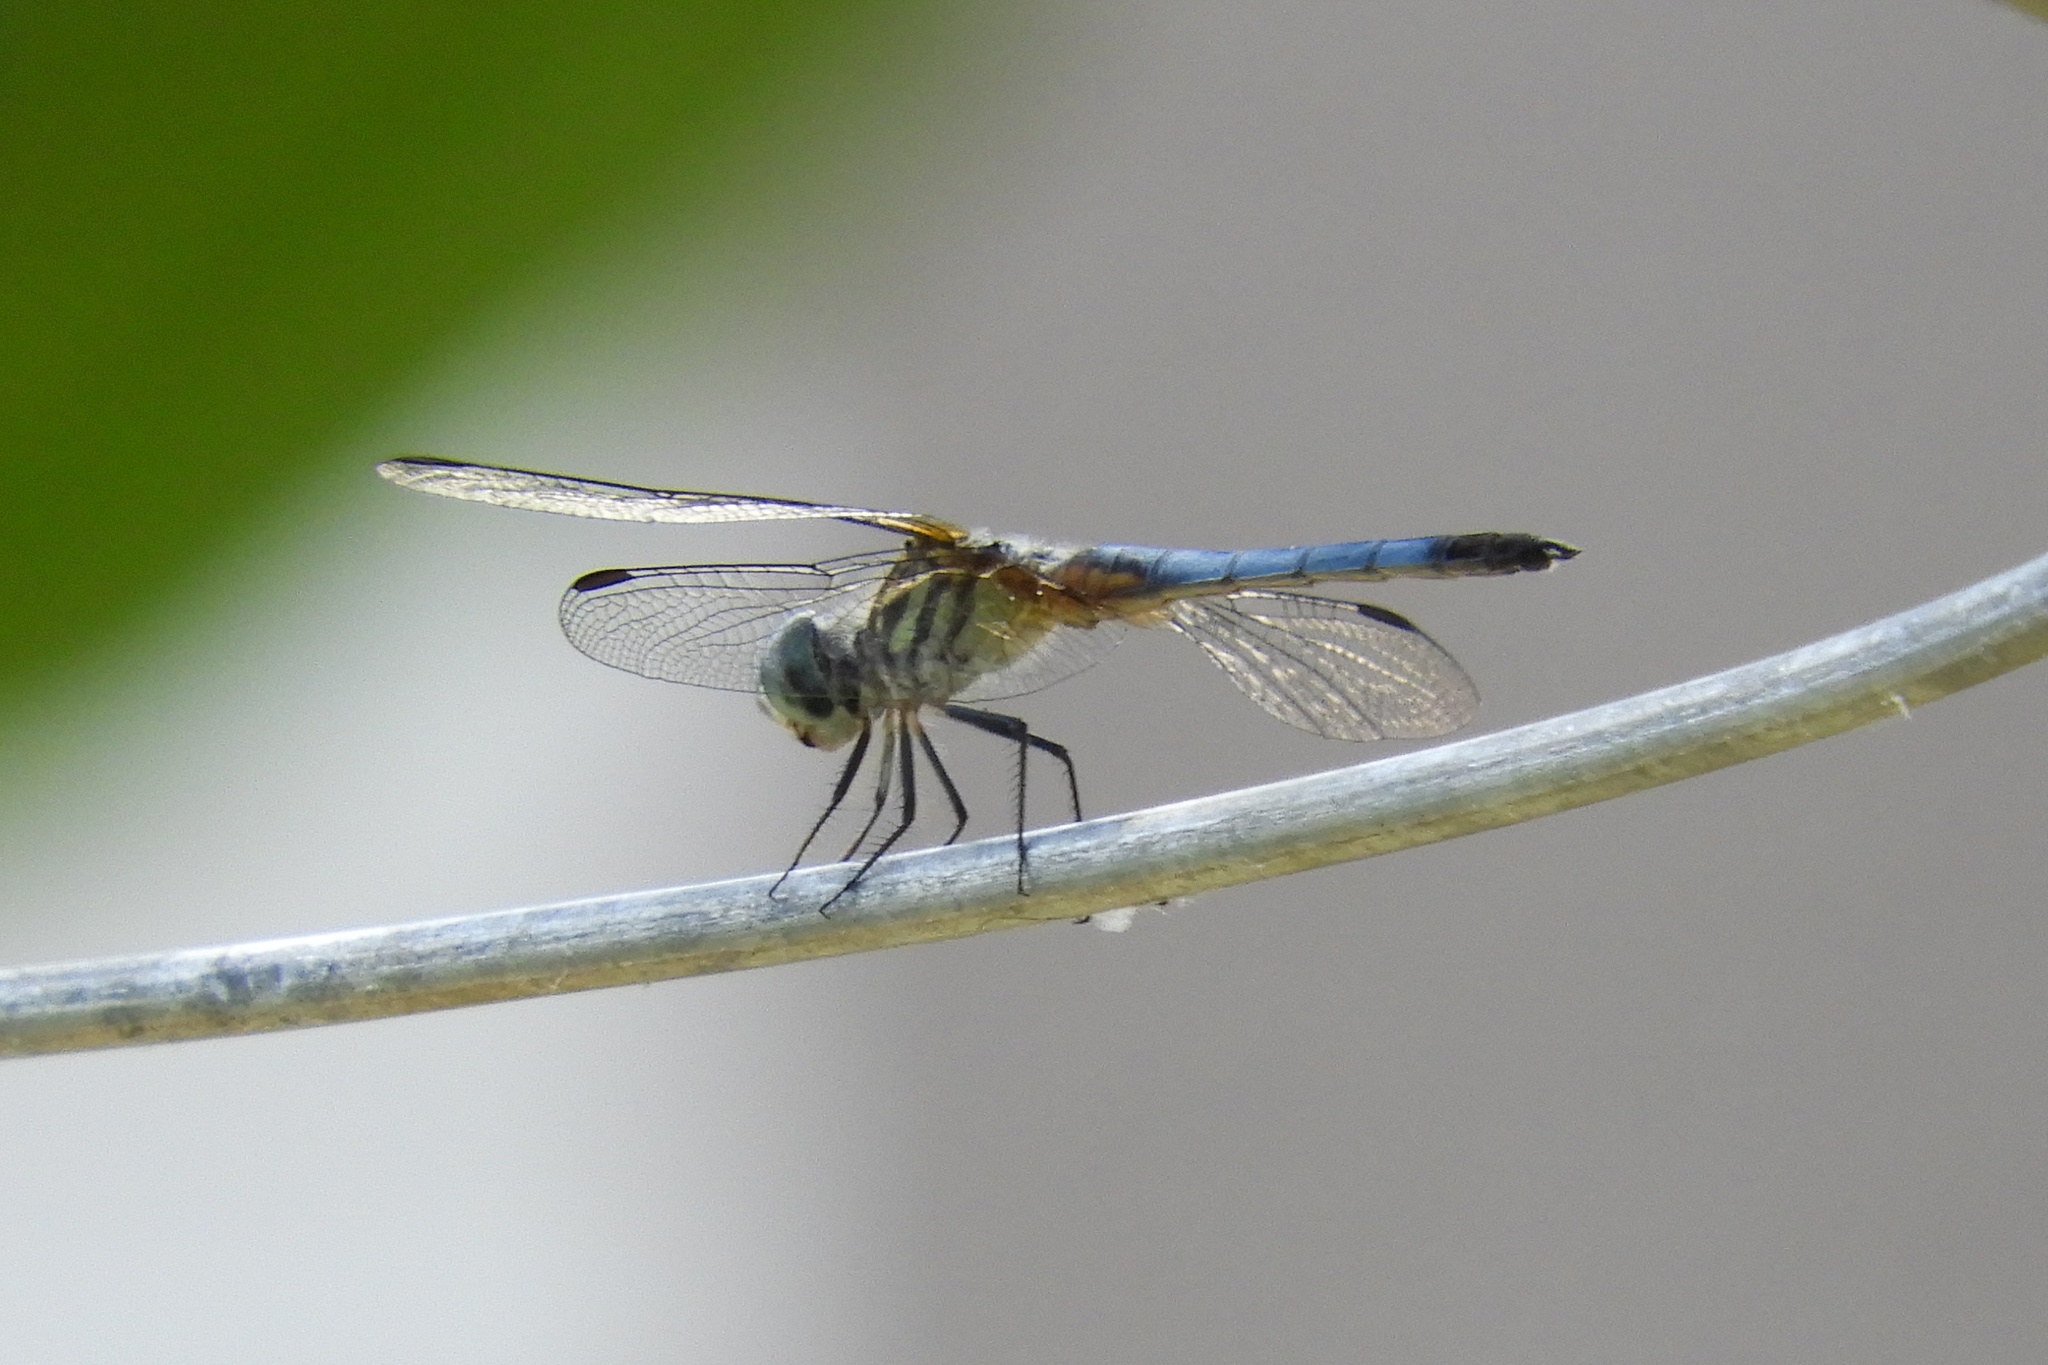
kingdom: Animalia
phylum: Arthropoda
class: Insecta
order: Odonata
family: Libellulidae
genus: Pachydiplax
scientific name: Pachydiplax longipennis
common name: Blue dasher
